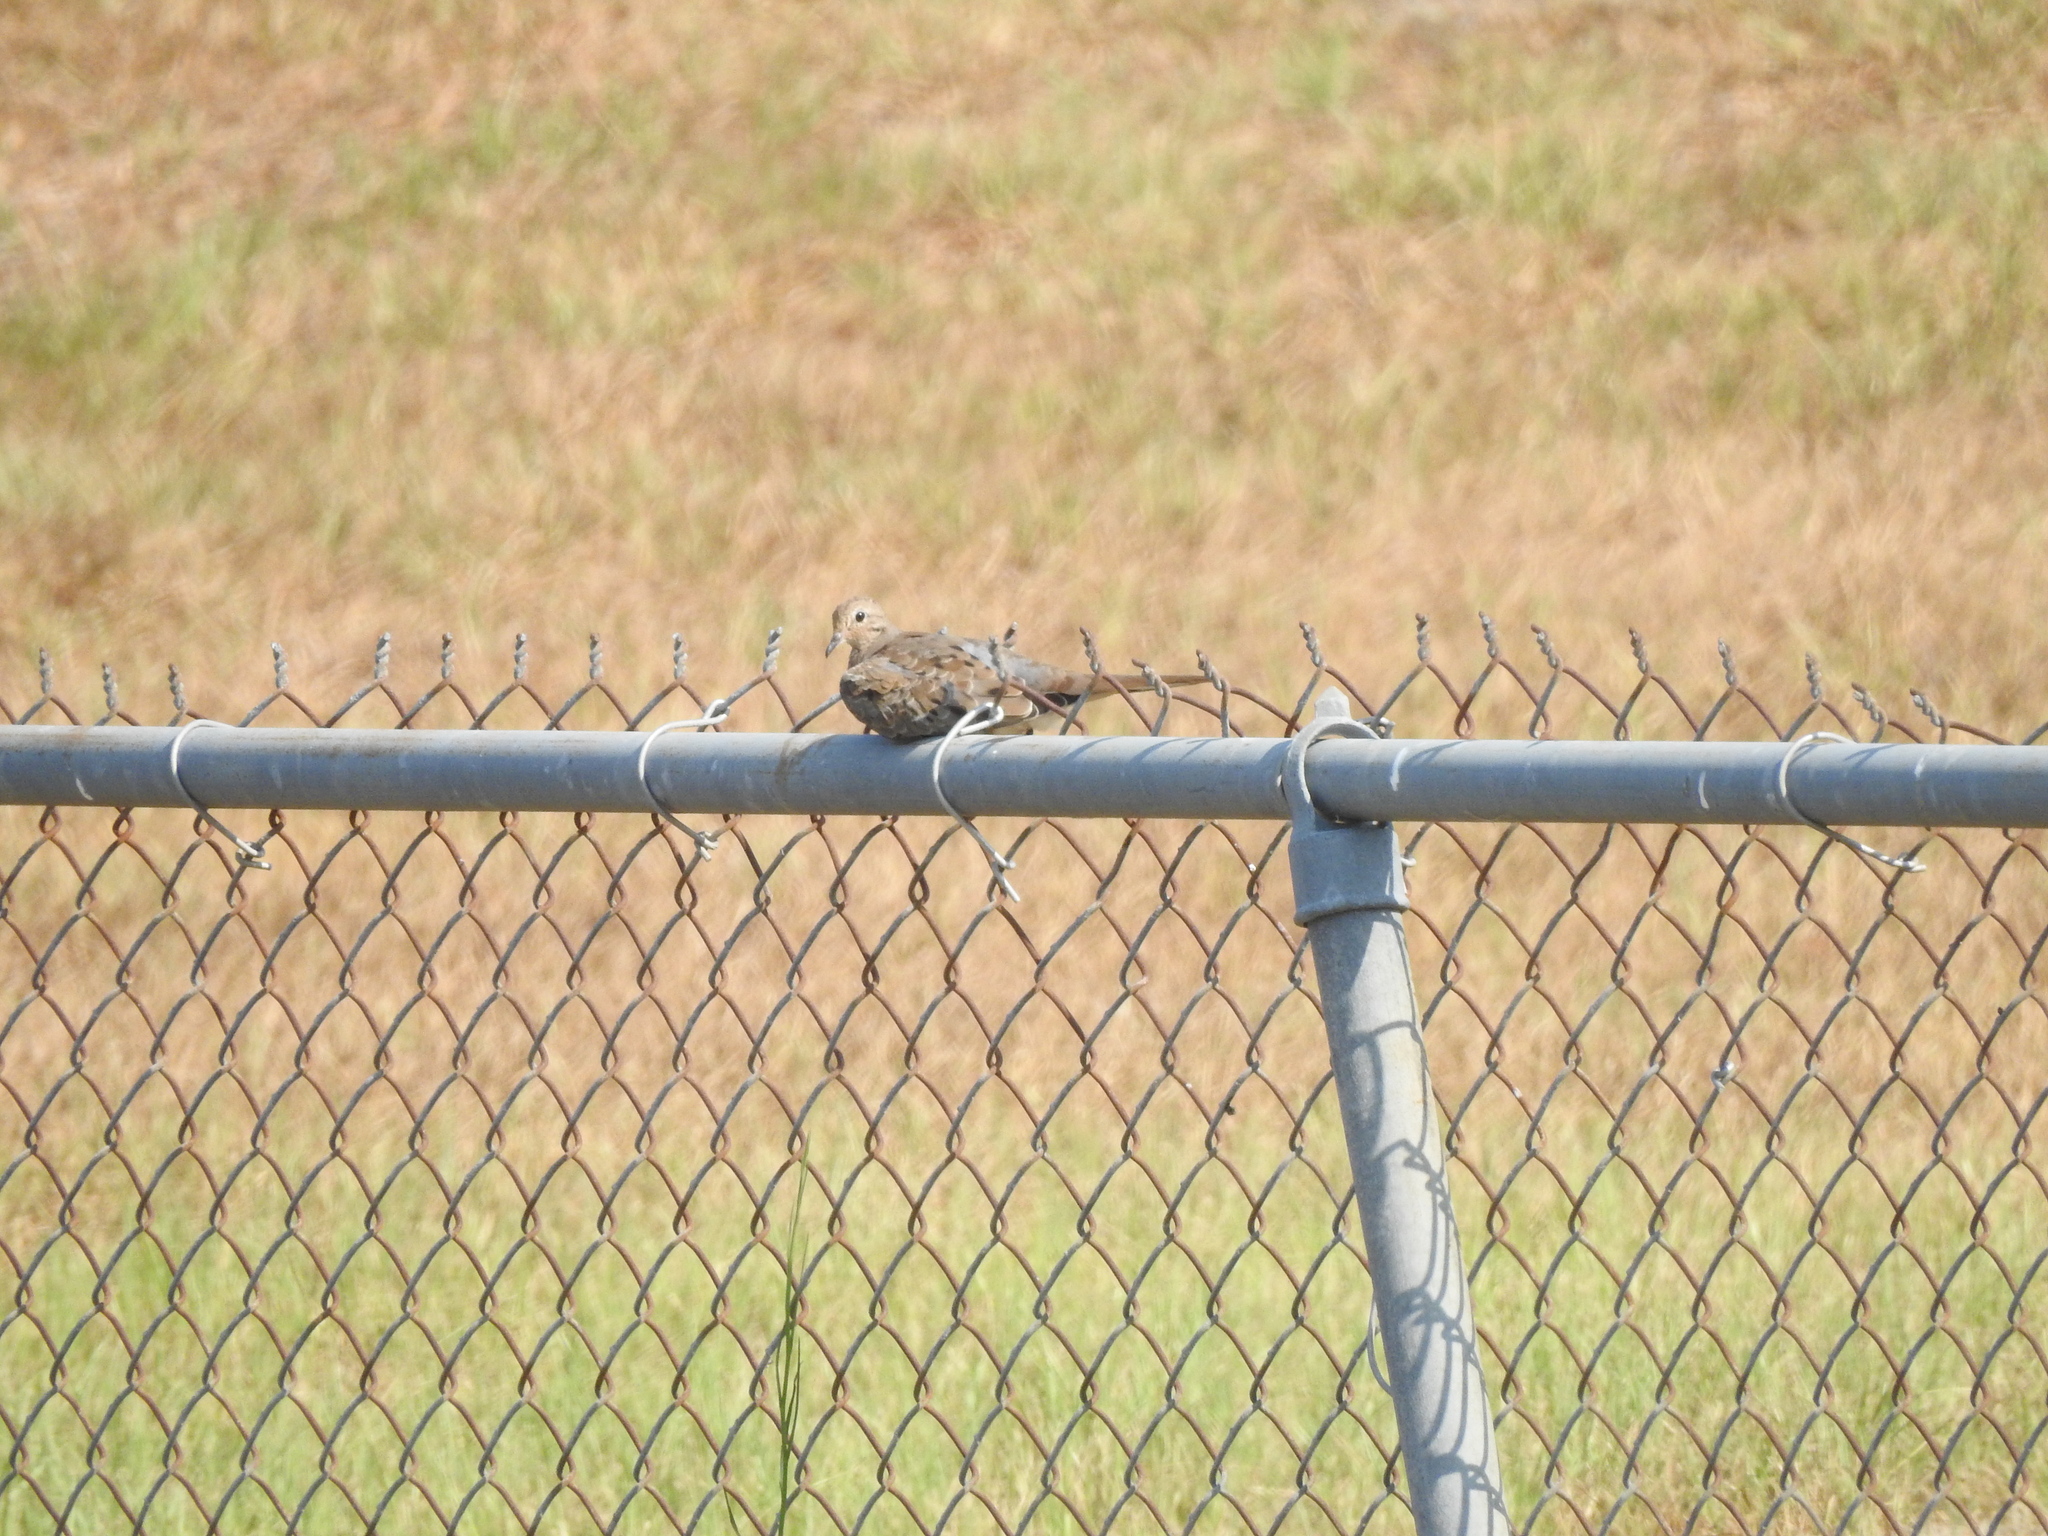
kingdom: Animalia
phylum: Chordata
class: Aves
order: Columbiformes
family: Columbidae
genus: Zenaida
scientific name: Zenaida macroura
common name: Mourning dove
